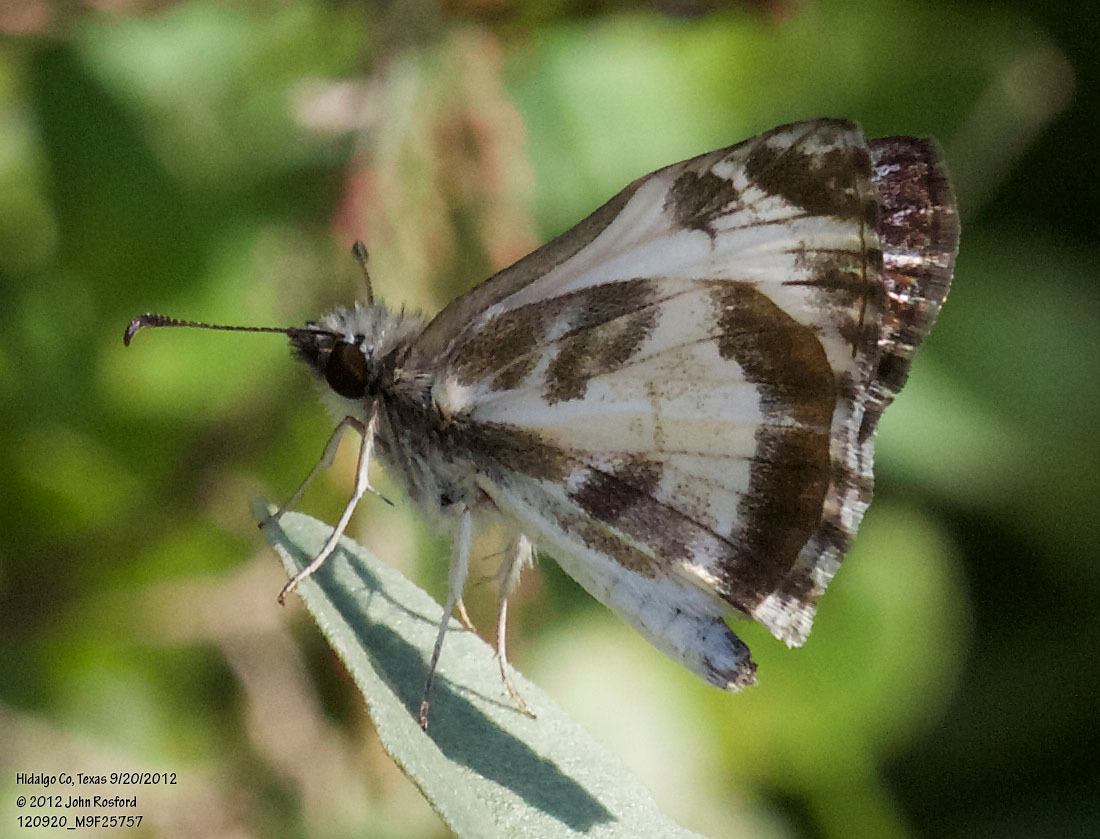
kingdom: Animalia
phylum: Arthropoda
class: Insecta
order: Lepidoptera
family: Hesperiidae
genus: Heliopetes
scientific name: Heliopetes macaira
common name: Turk's-cap white-skipper
